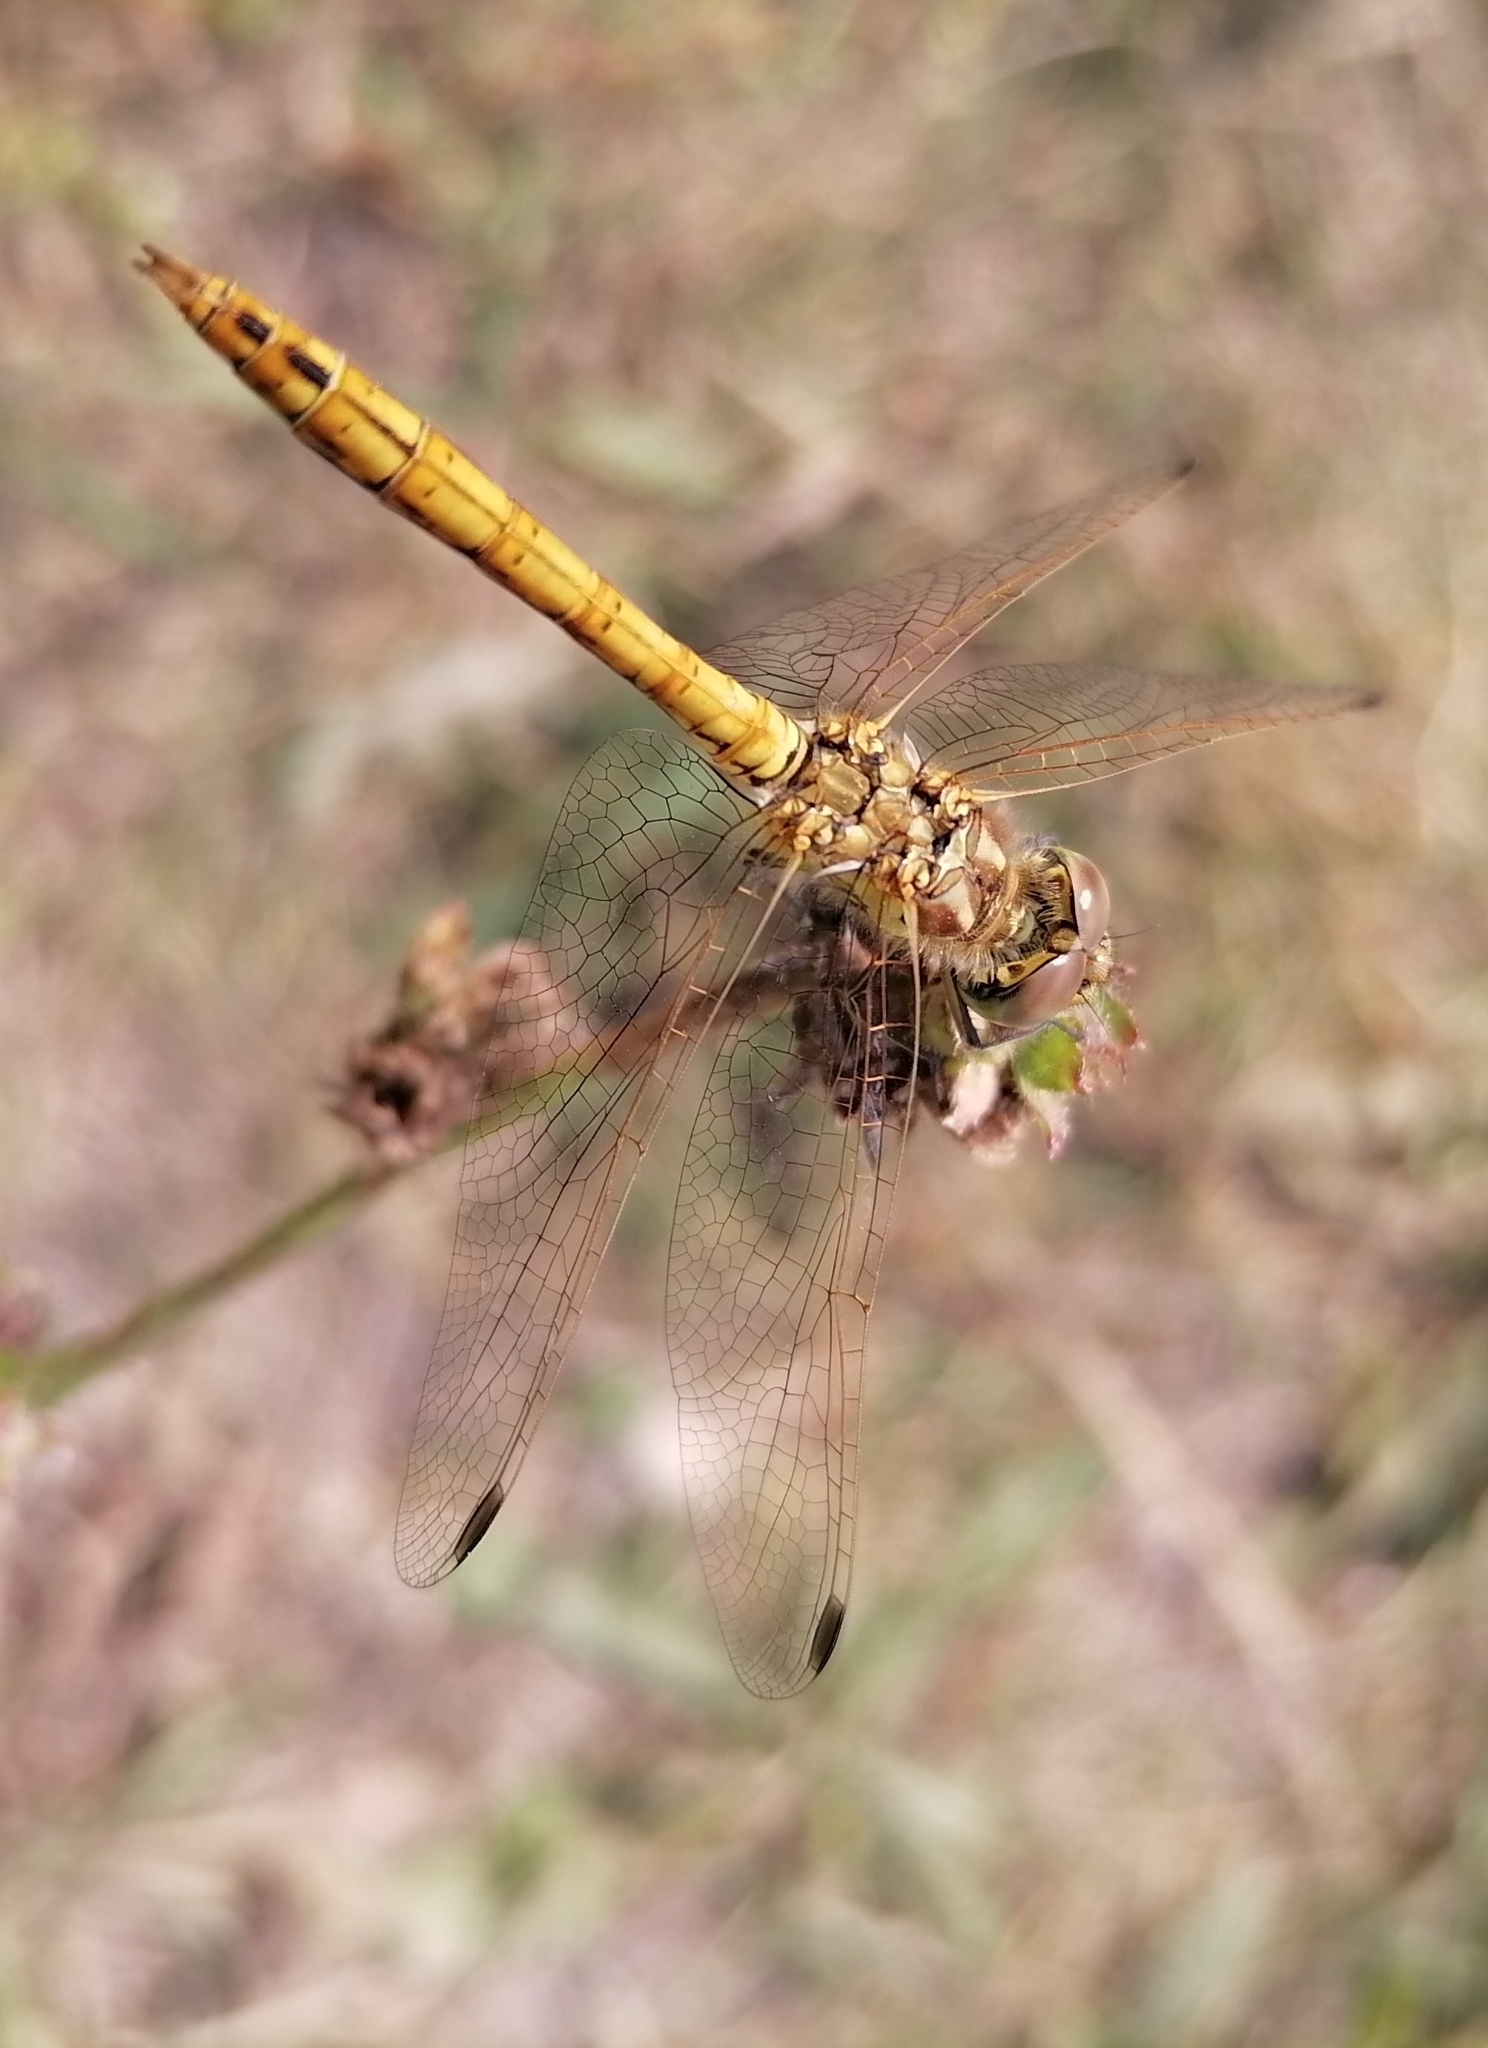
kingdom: Animalia
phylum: Arthropoda
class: Insecta
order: Odonata
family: Libellulidae
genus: Sympetrum
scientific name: Sympetrum vulgatum
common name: Vagrant darter
